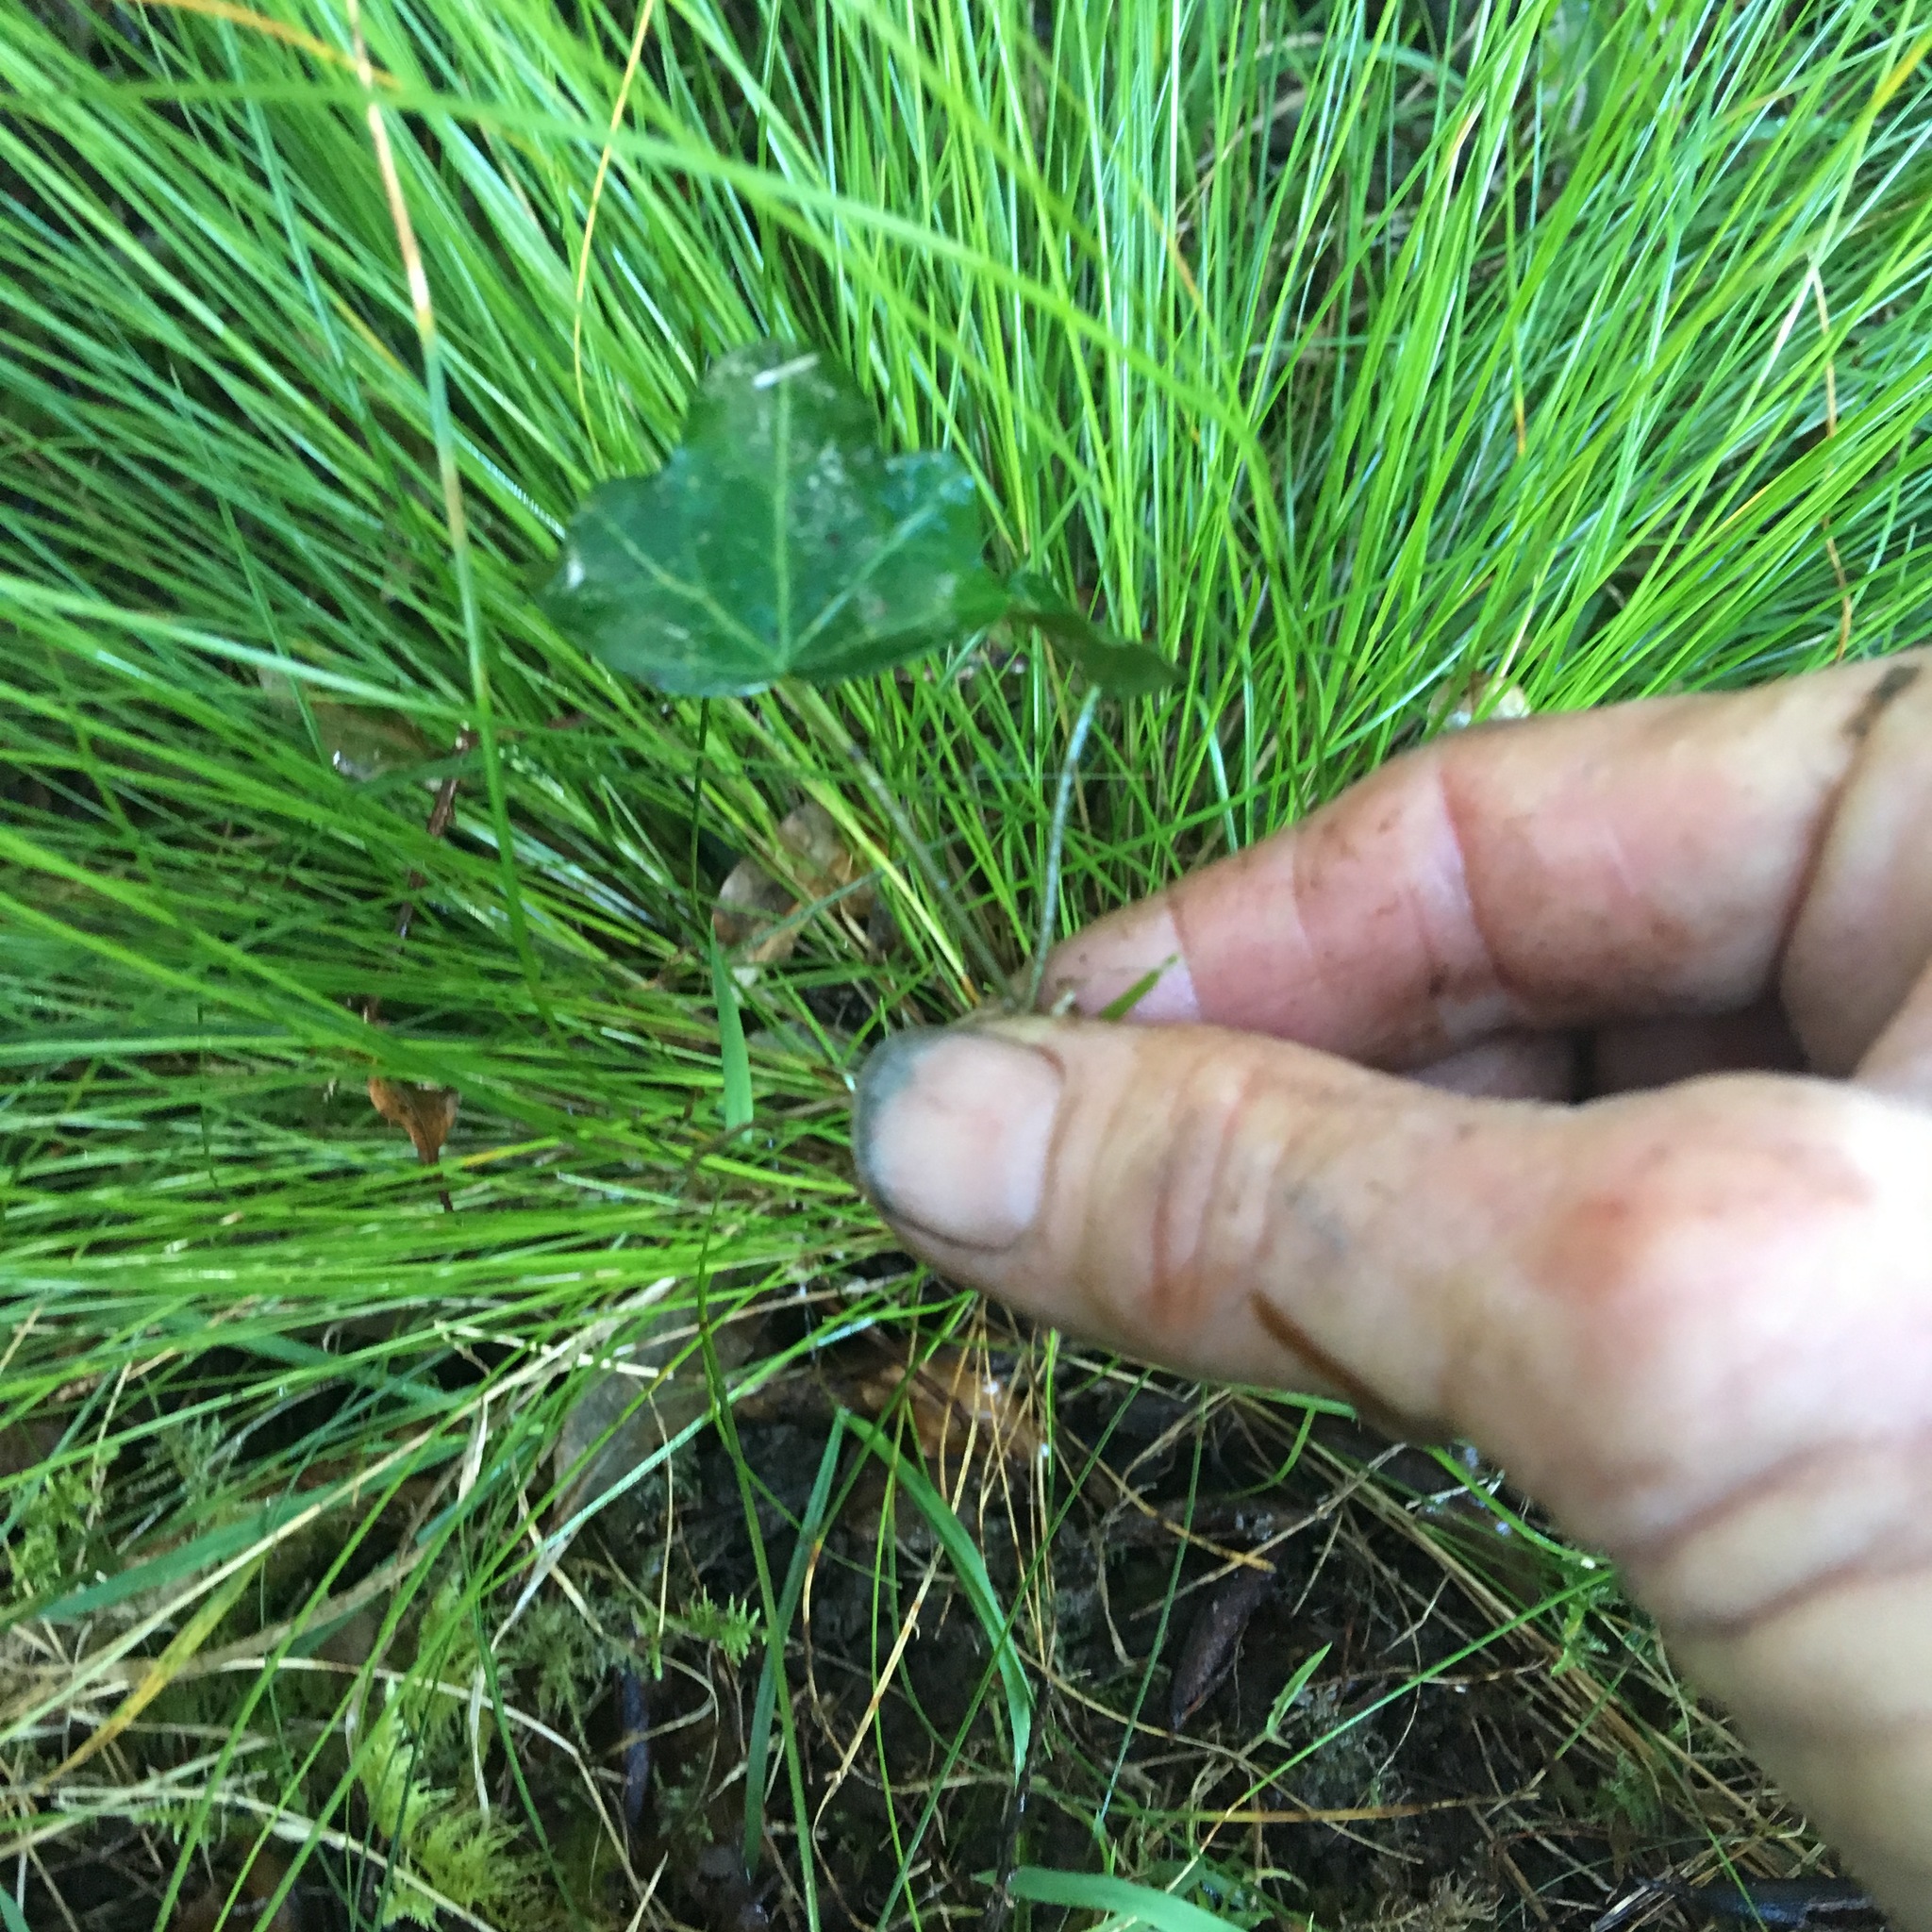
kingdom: Plantae
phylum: Tracheophyta
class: Magnoliopsida
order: Apiales
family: Araliaceae
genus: Hedera
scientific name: Hedera helix
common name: Ivy
